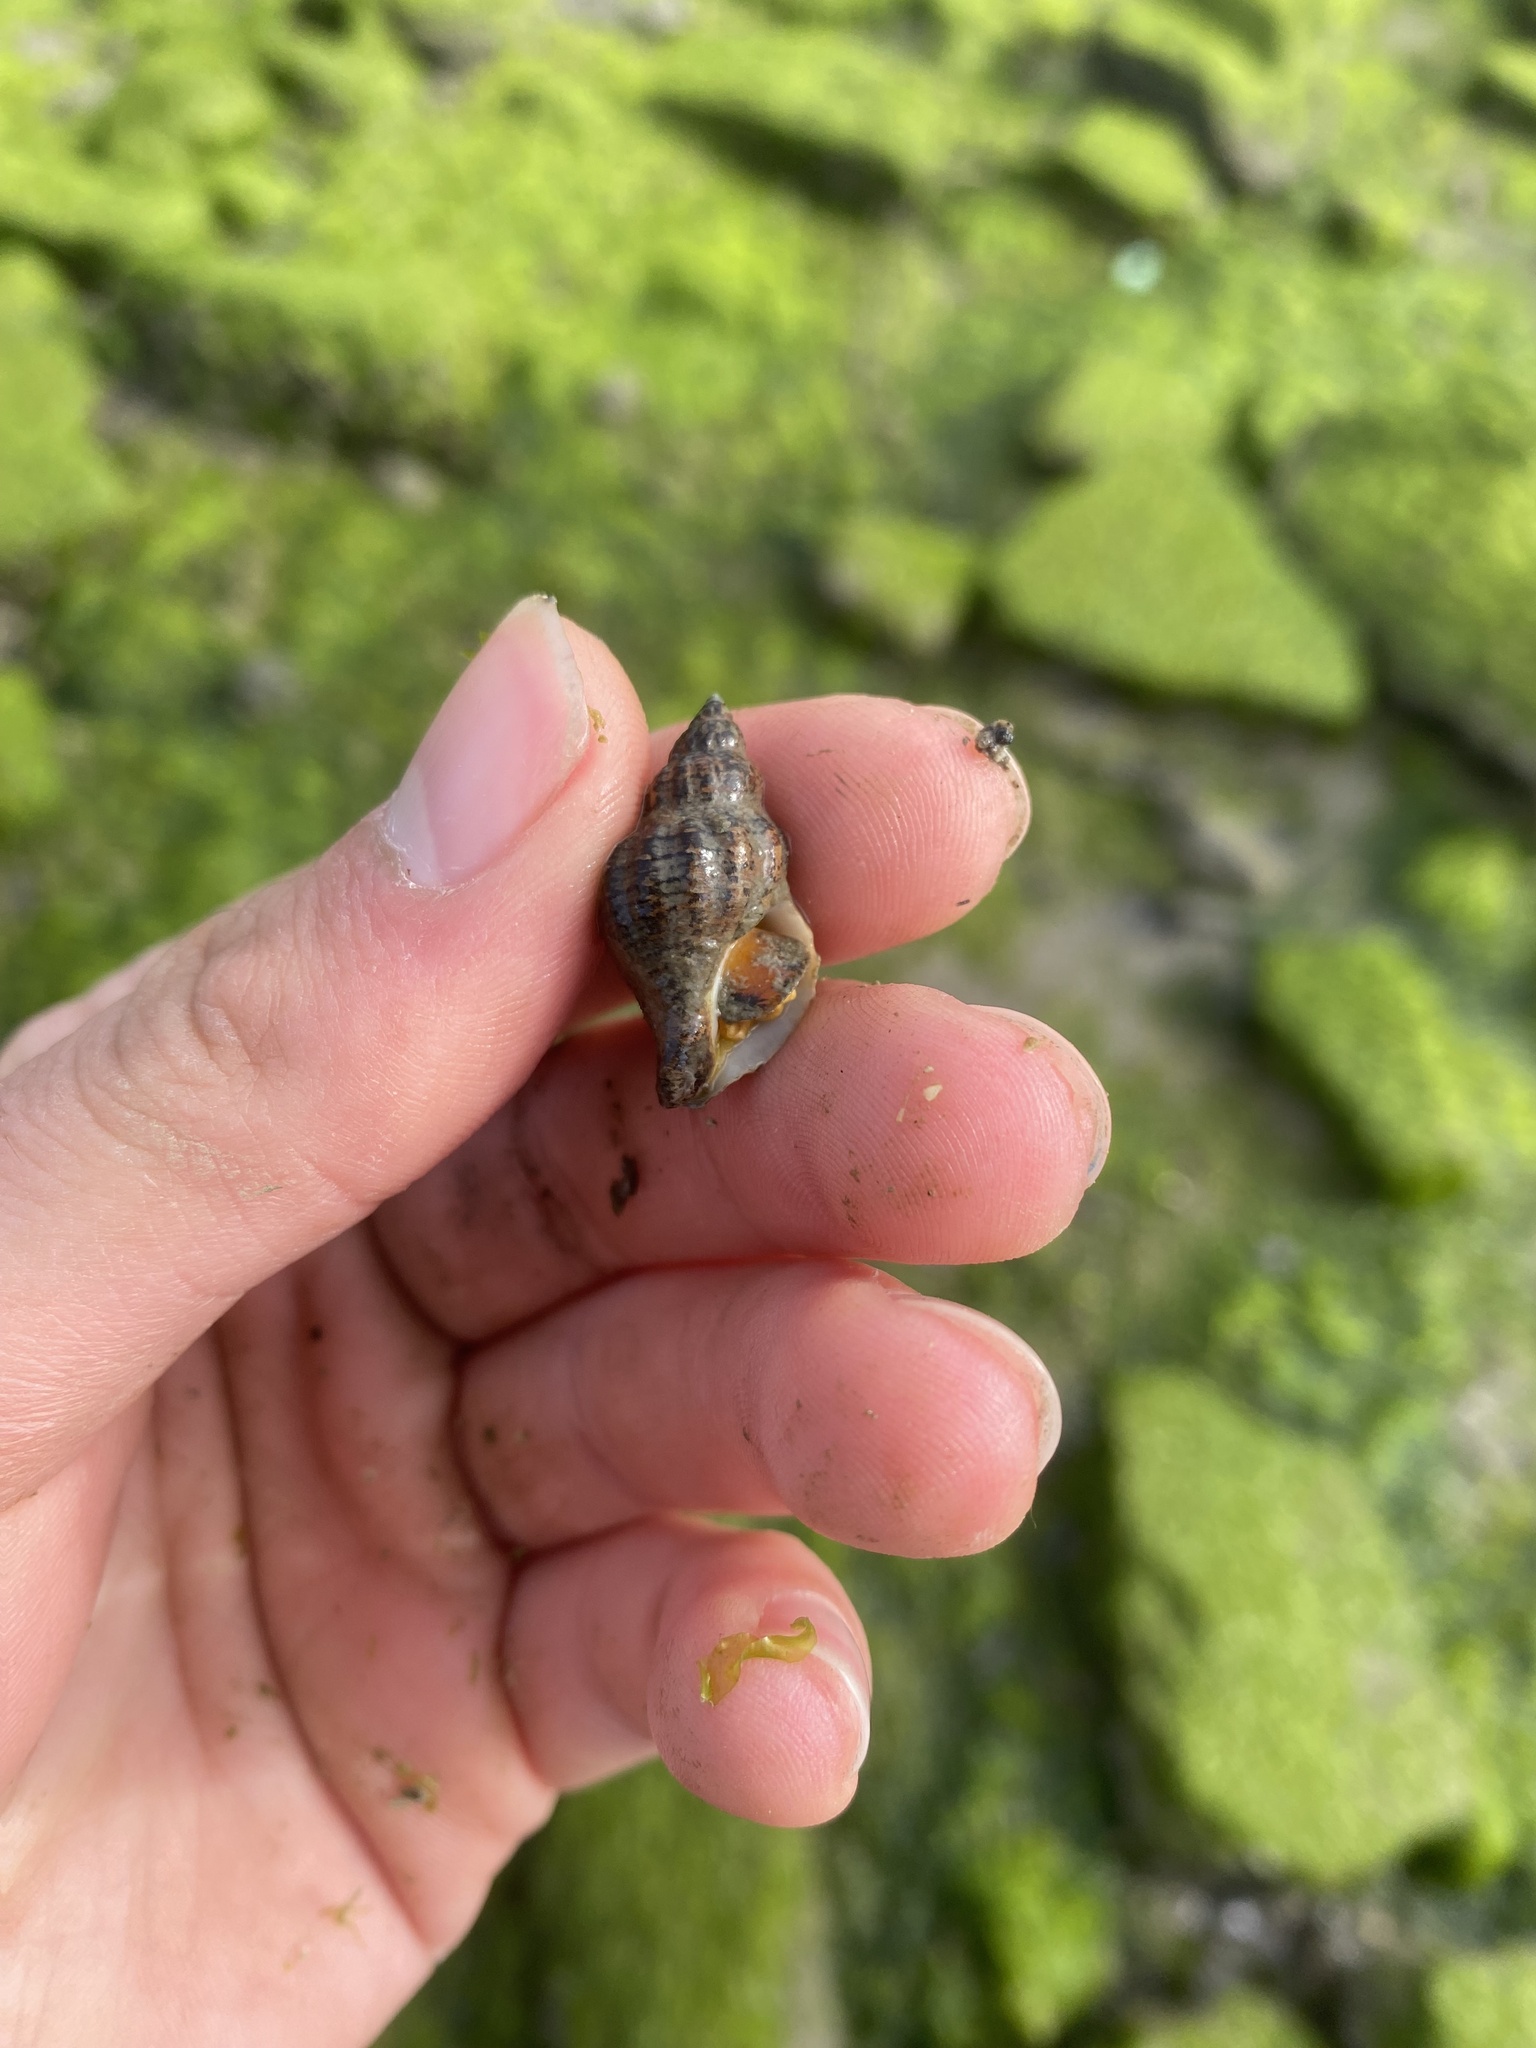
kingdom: Animalia
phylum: Mollusca
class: Gastropoda
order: Neogastropoda
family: Muricidae
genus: Urosalpinx
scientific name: Urosalpinx cinerea
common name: American sting winkle
